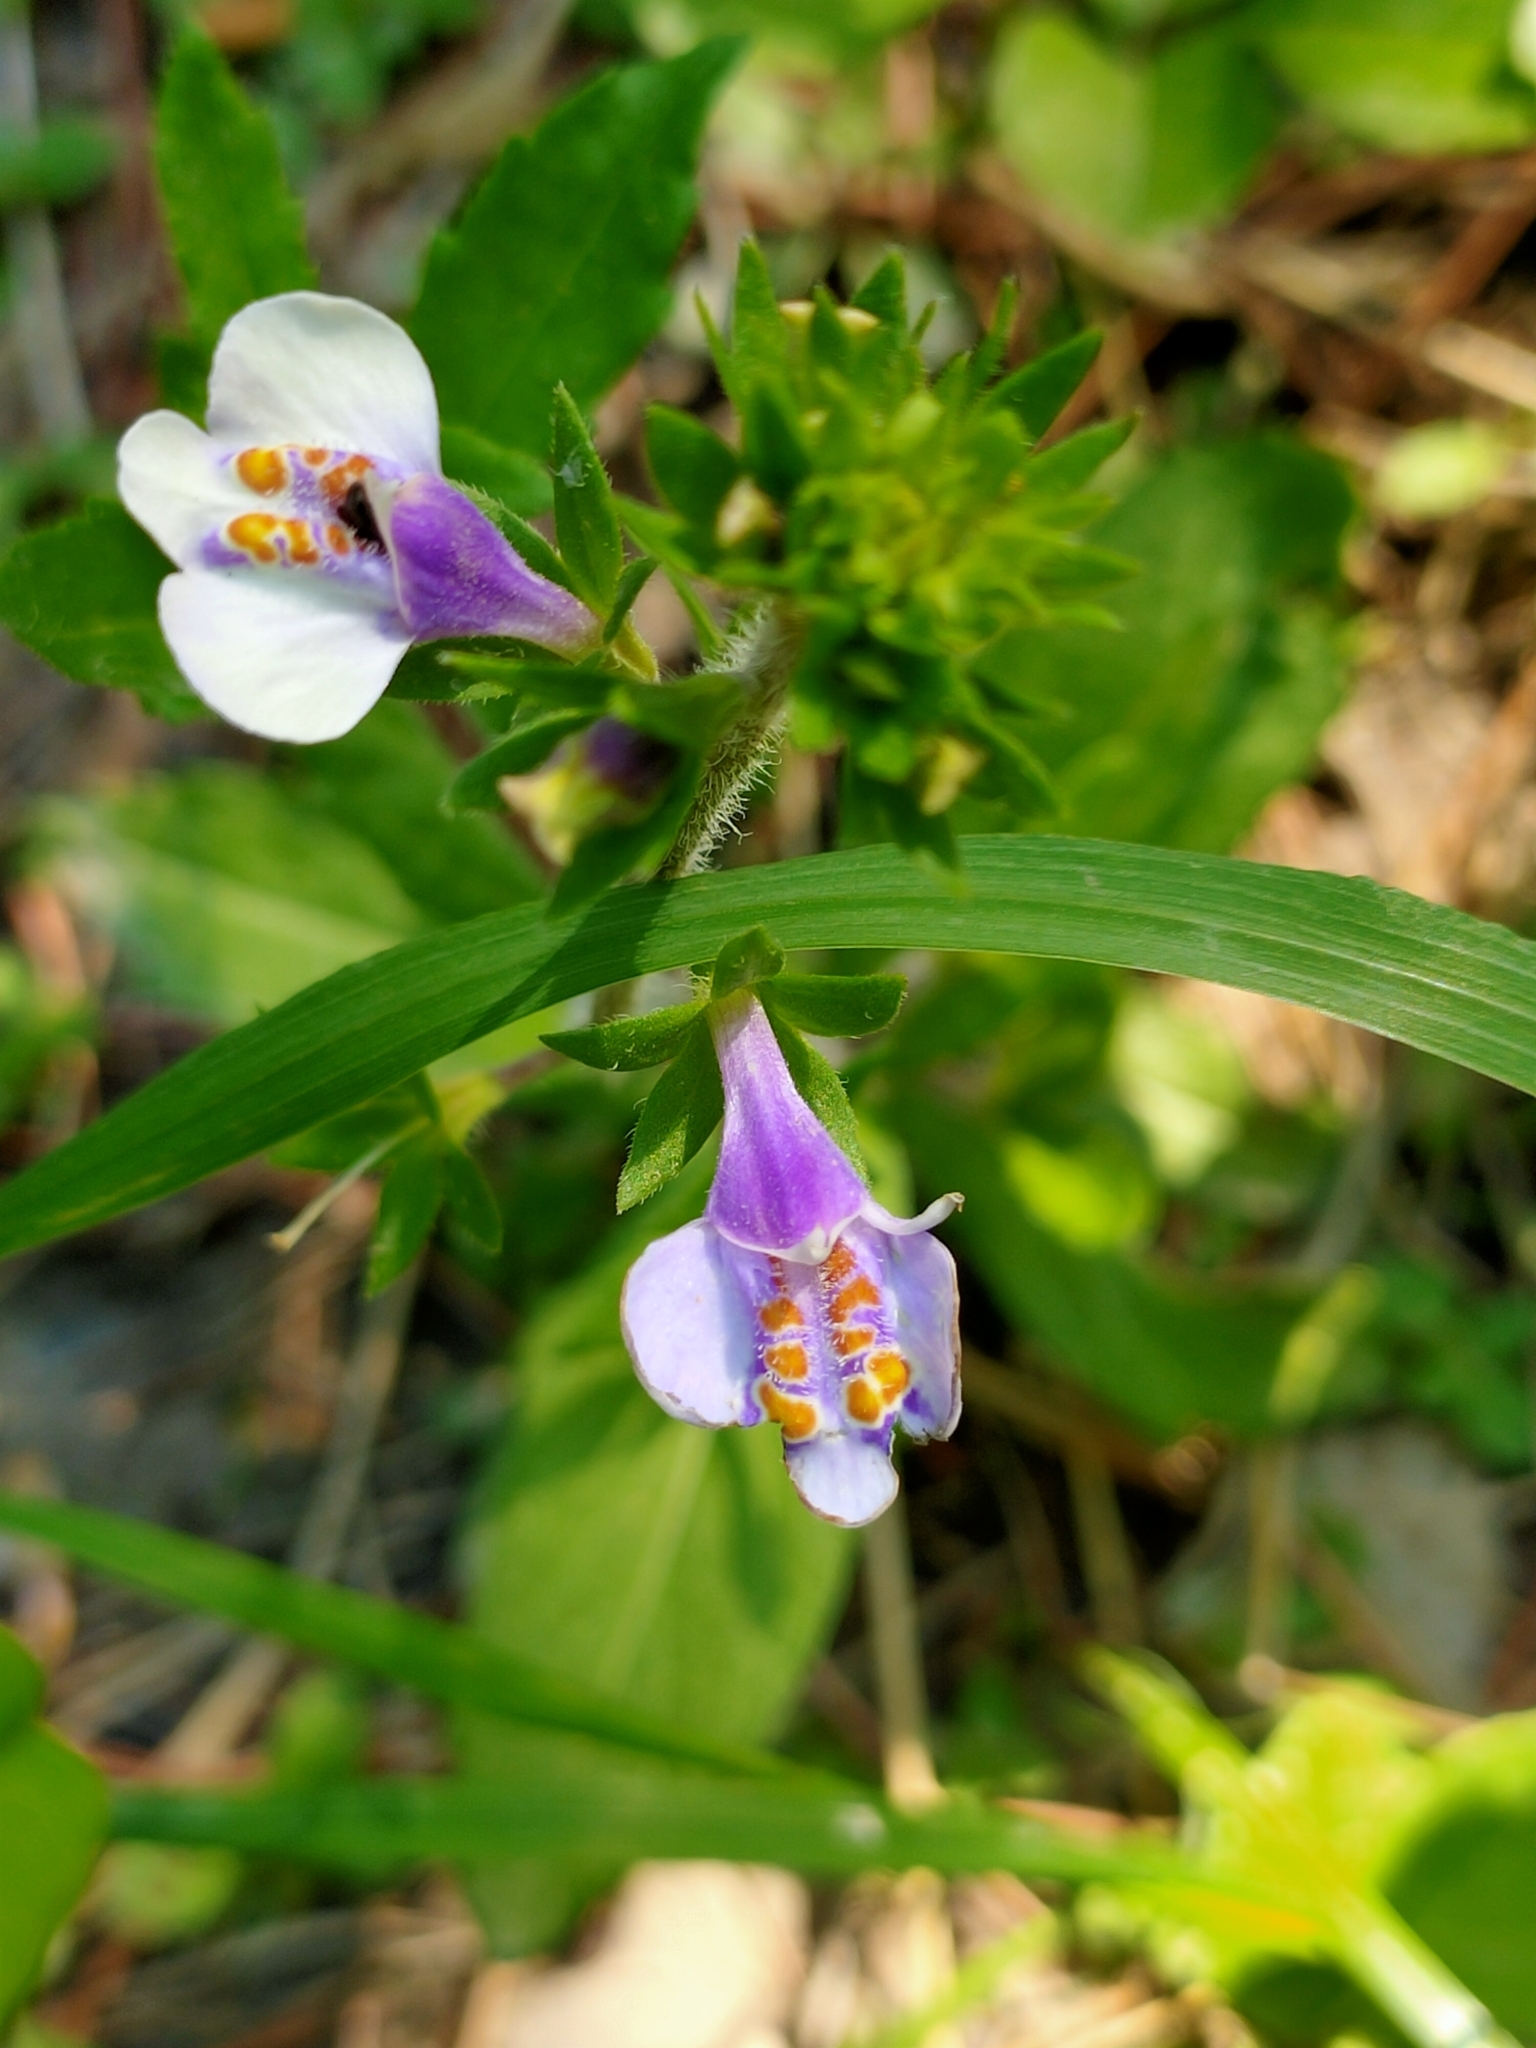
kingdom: Plantae
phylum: Tracheophyta
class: Magnoliopsida
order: Lamiales
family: Mazaceae
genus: Mazus
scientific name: Mazus pumilus
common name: Japanese mazus
